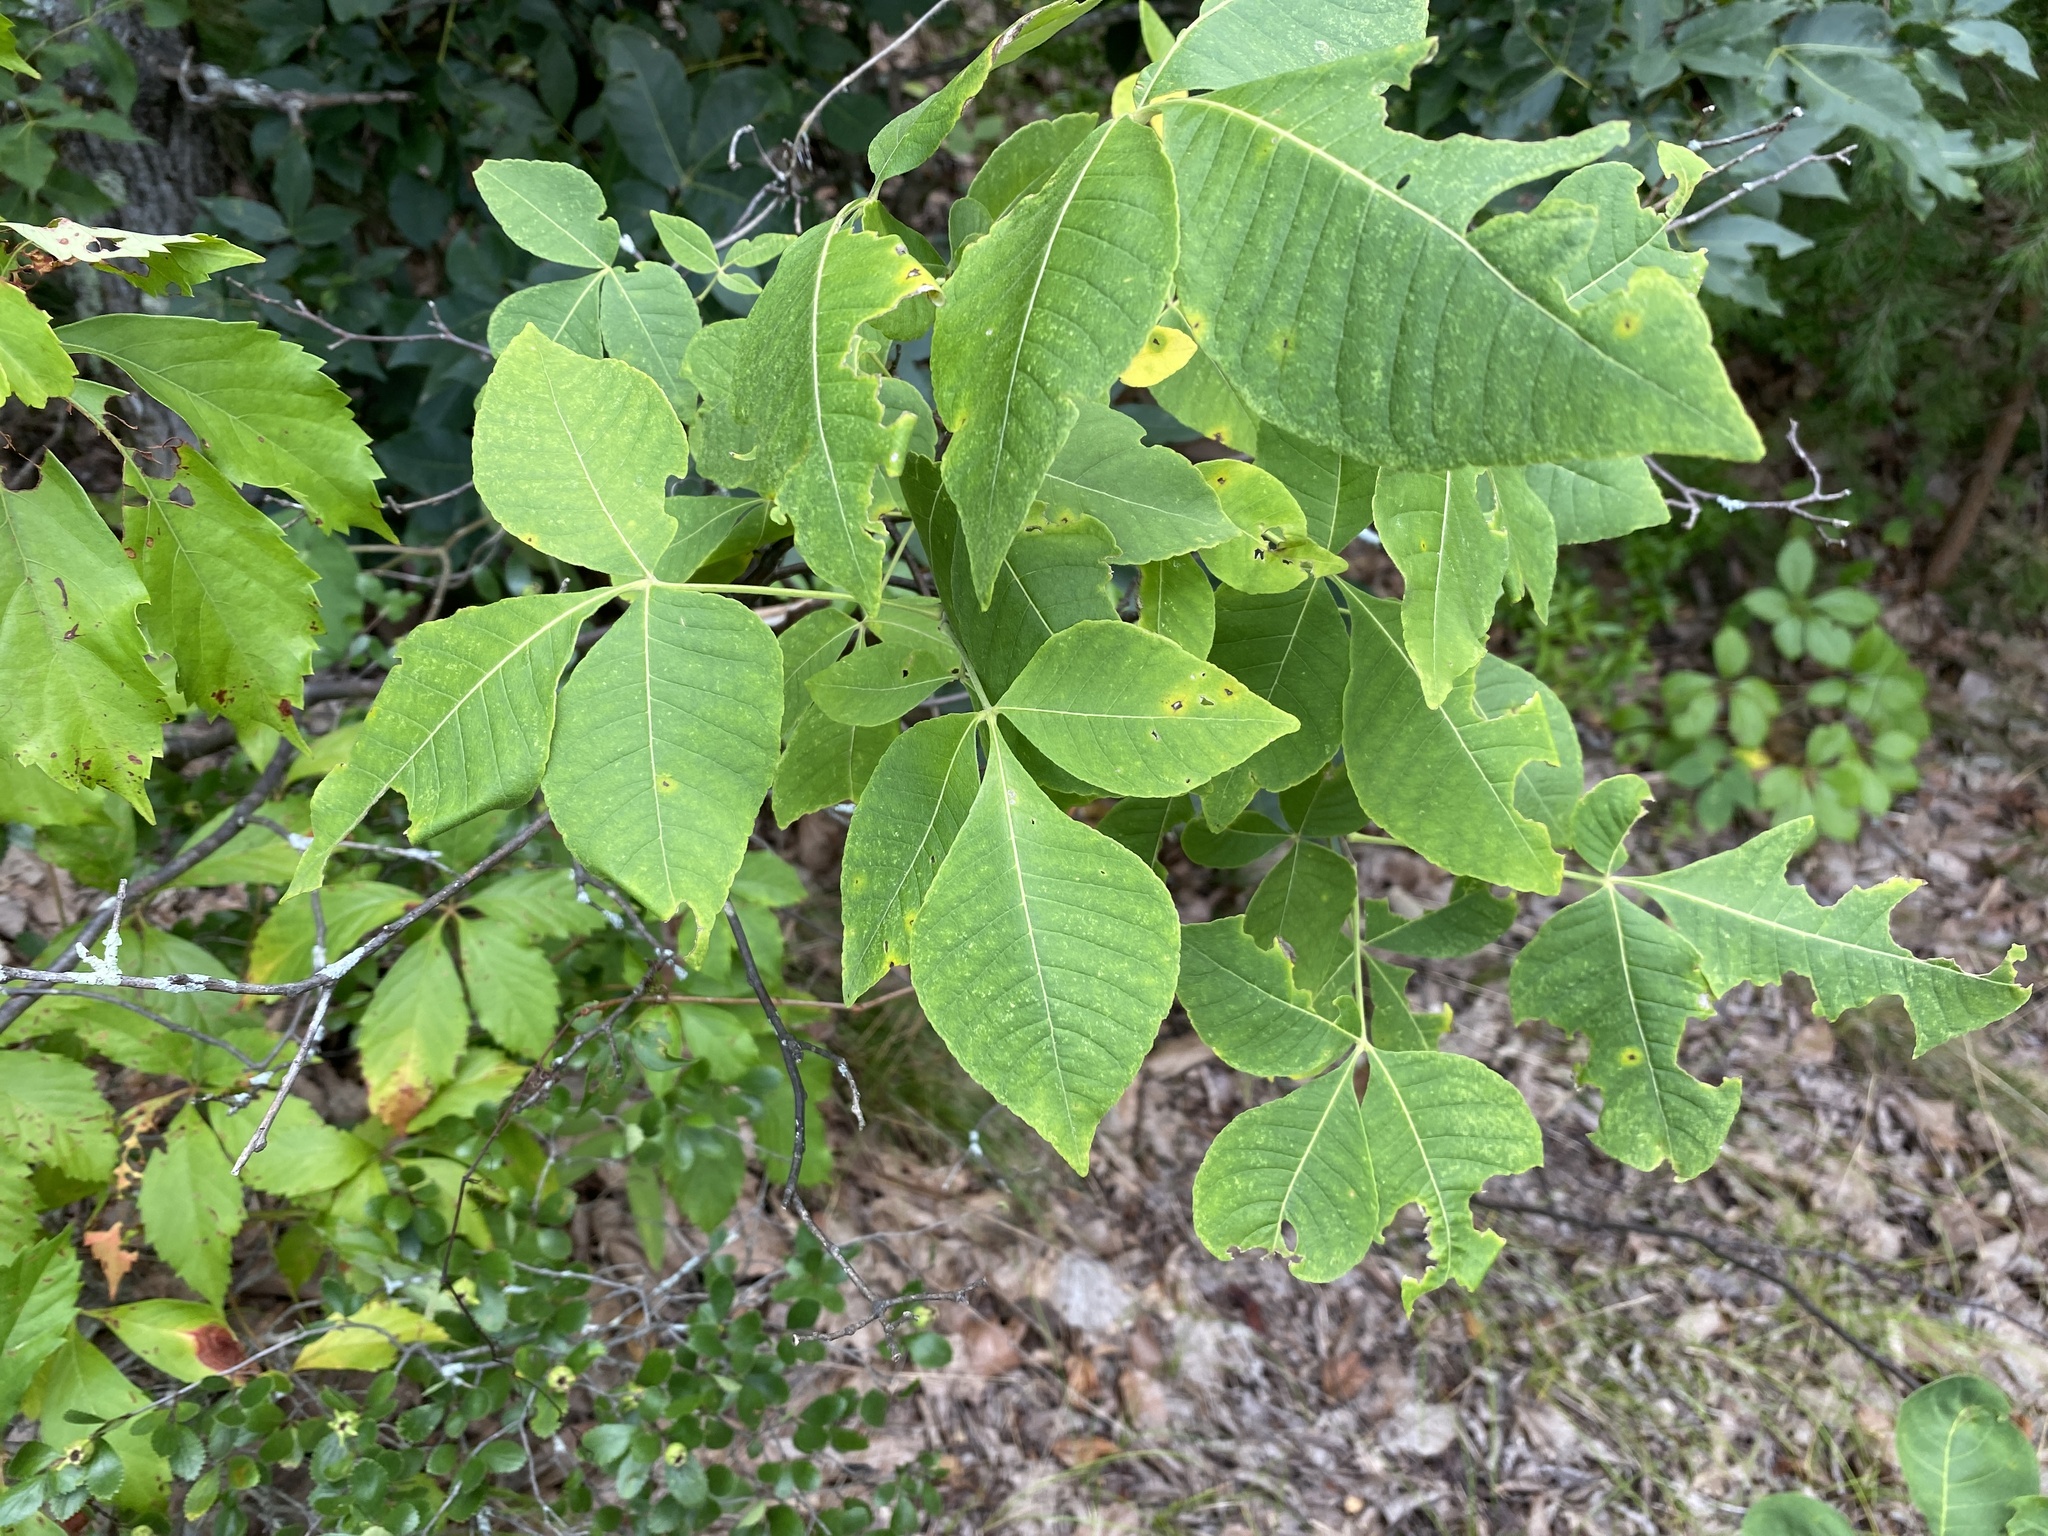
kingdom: Plantae
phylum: Tracheophyta
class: Magnoliopsida
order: Sapindales
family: Rutaceae
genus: Ptelea
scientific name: Ptelea trifoliata
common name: Common hop-tree
